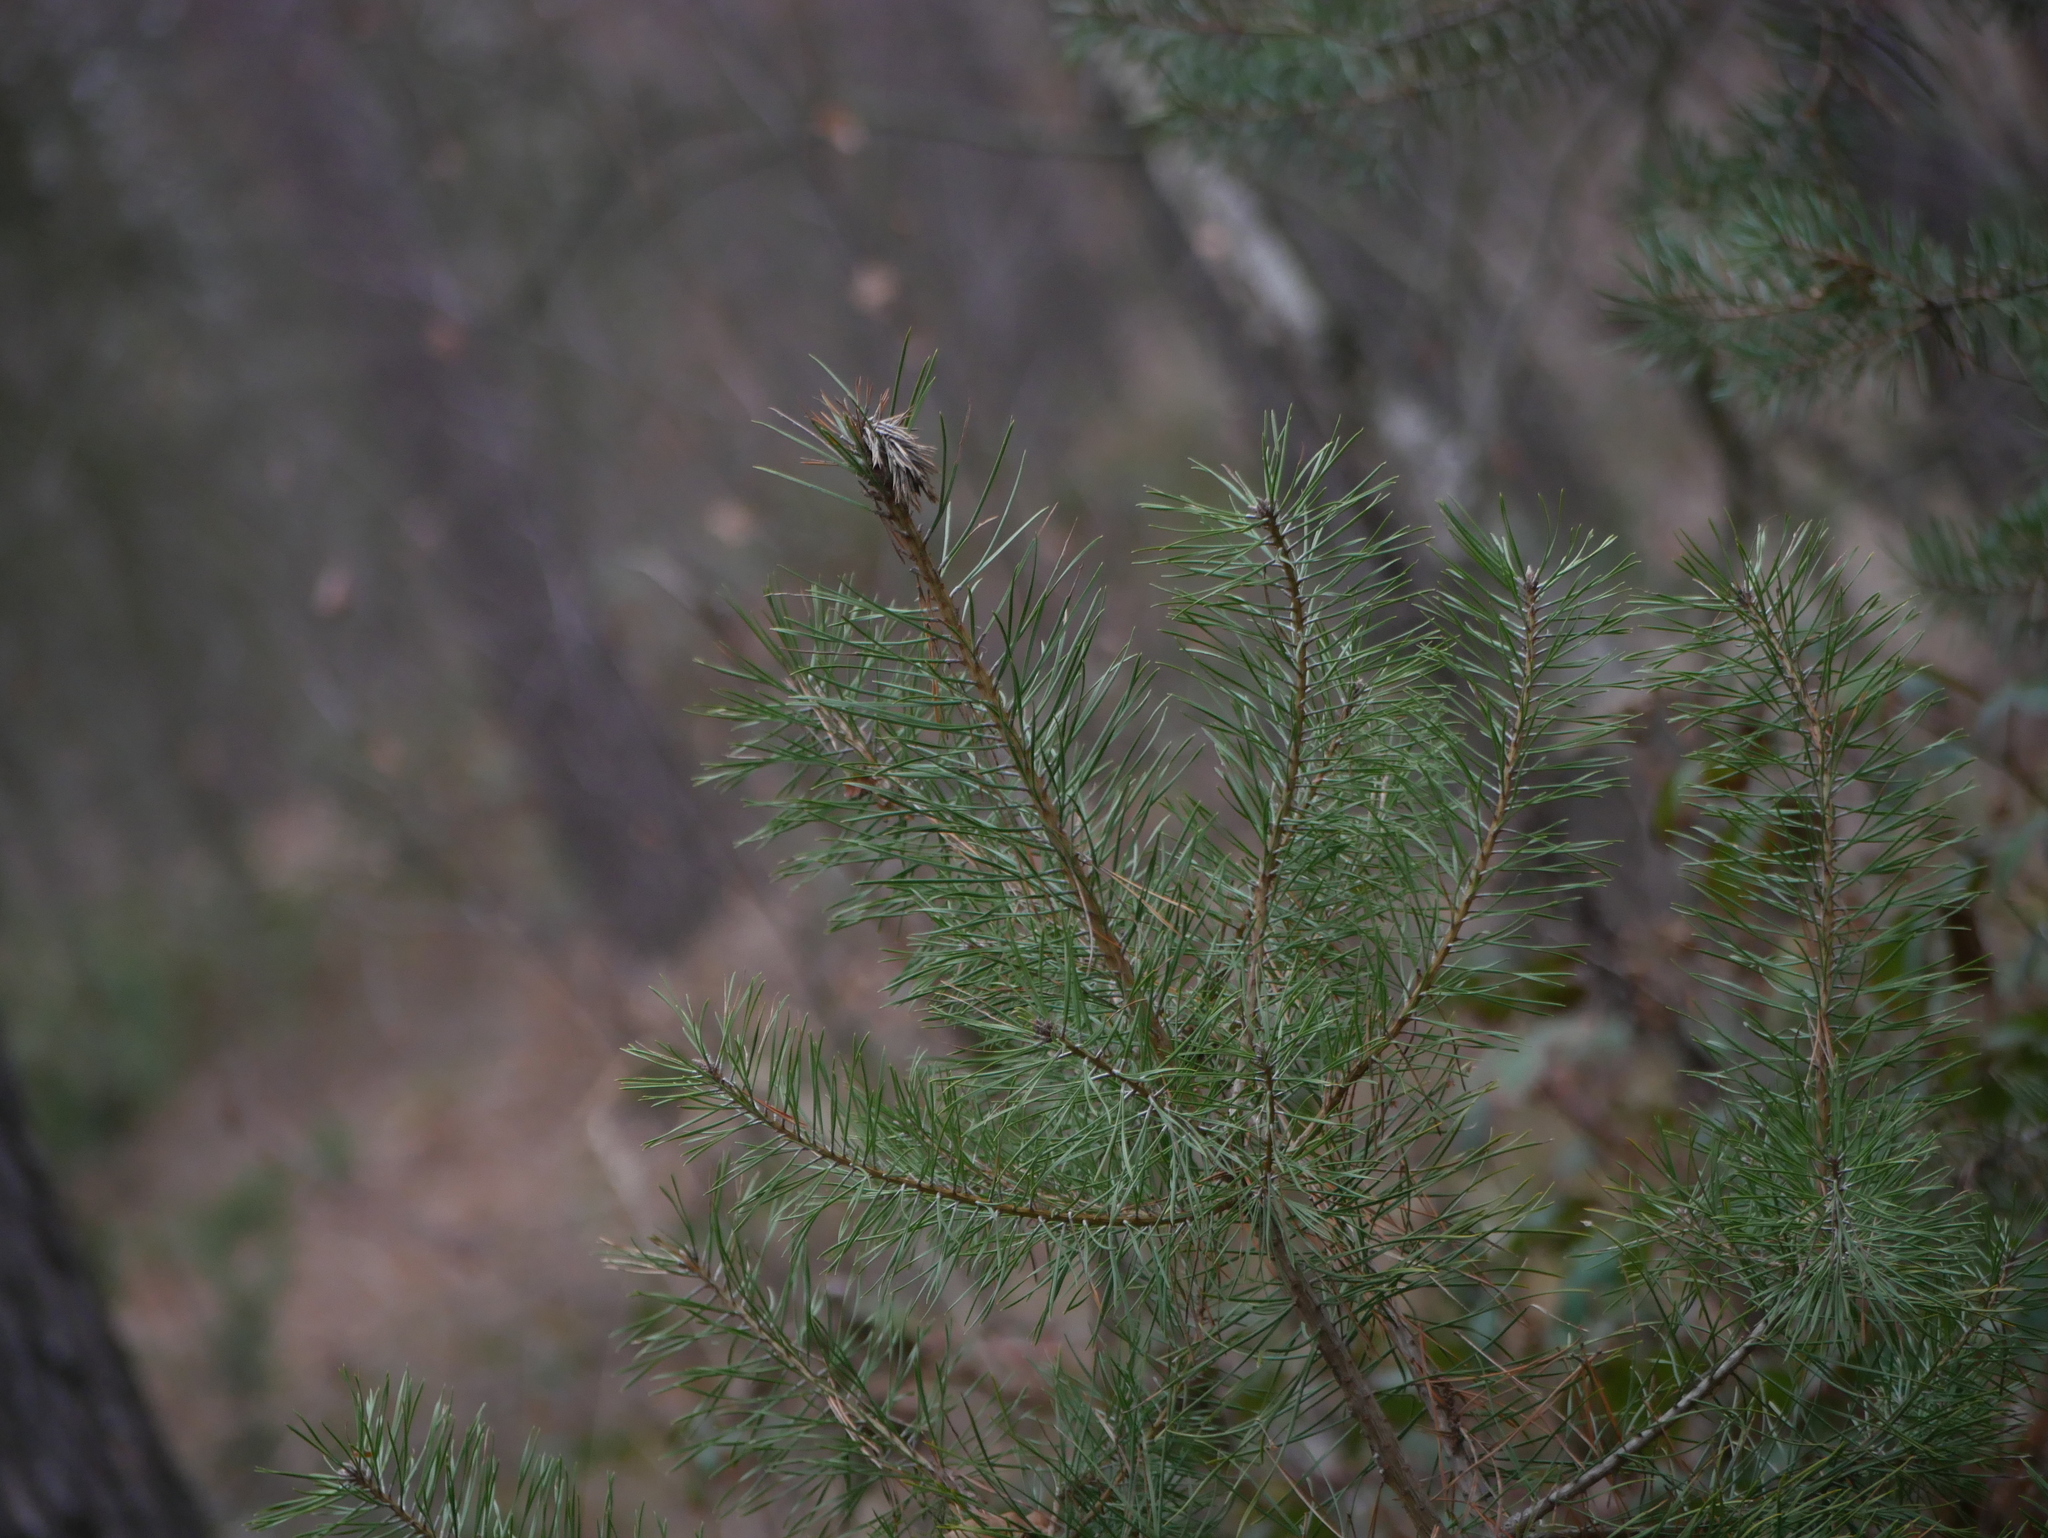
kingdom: Plantae
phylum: Tracheophyta
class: Pinopsida
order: Pinales
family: Pinaceae
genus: Pinus
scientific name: Pinus sylvestris
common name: Scots pine
